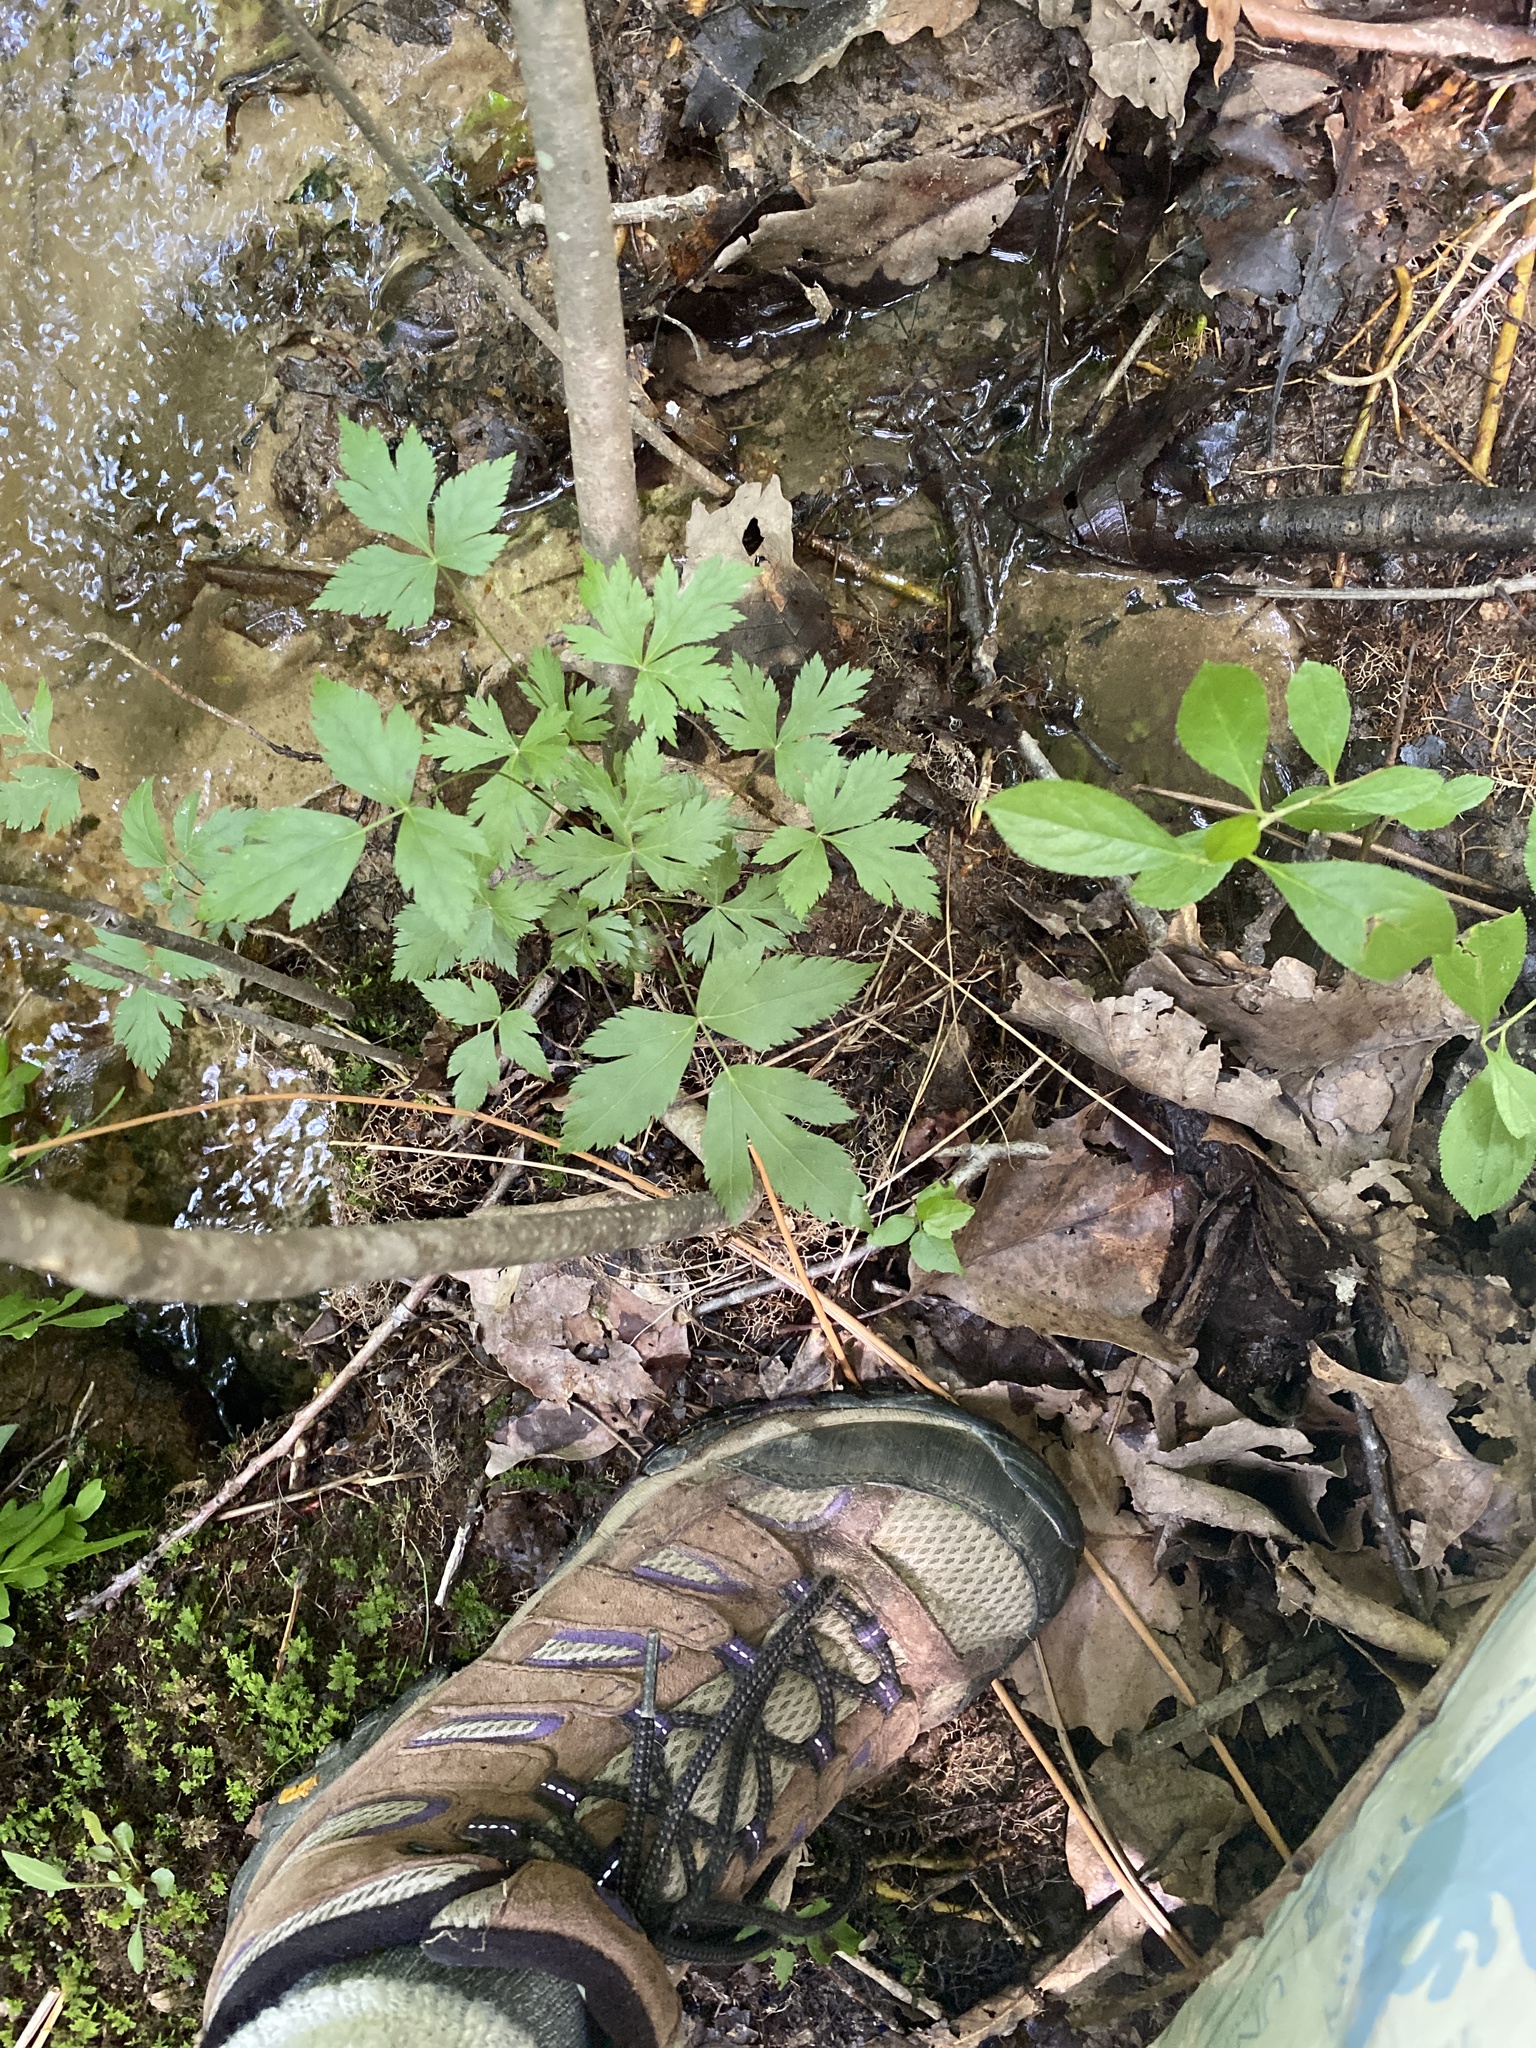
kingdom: Plantae
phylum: Tracheophyta
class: Magnoliopsida
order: Ranunculales
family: Ranunculaceae
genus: Xanthorhiza
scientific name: Xanthorhiza simplicissima
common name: Yellowroot
